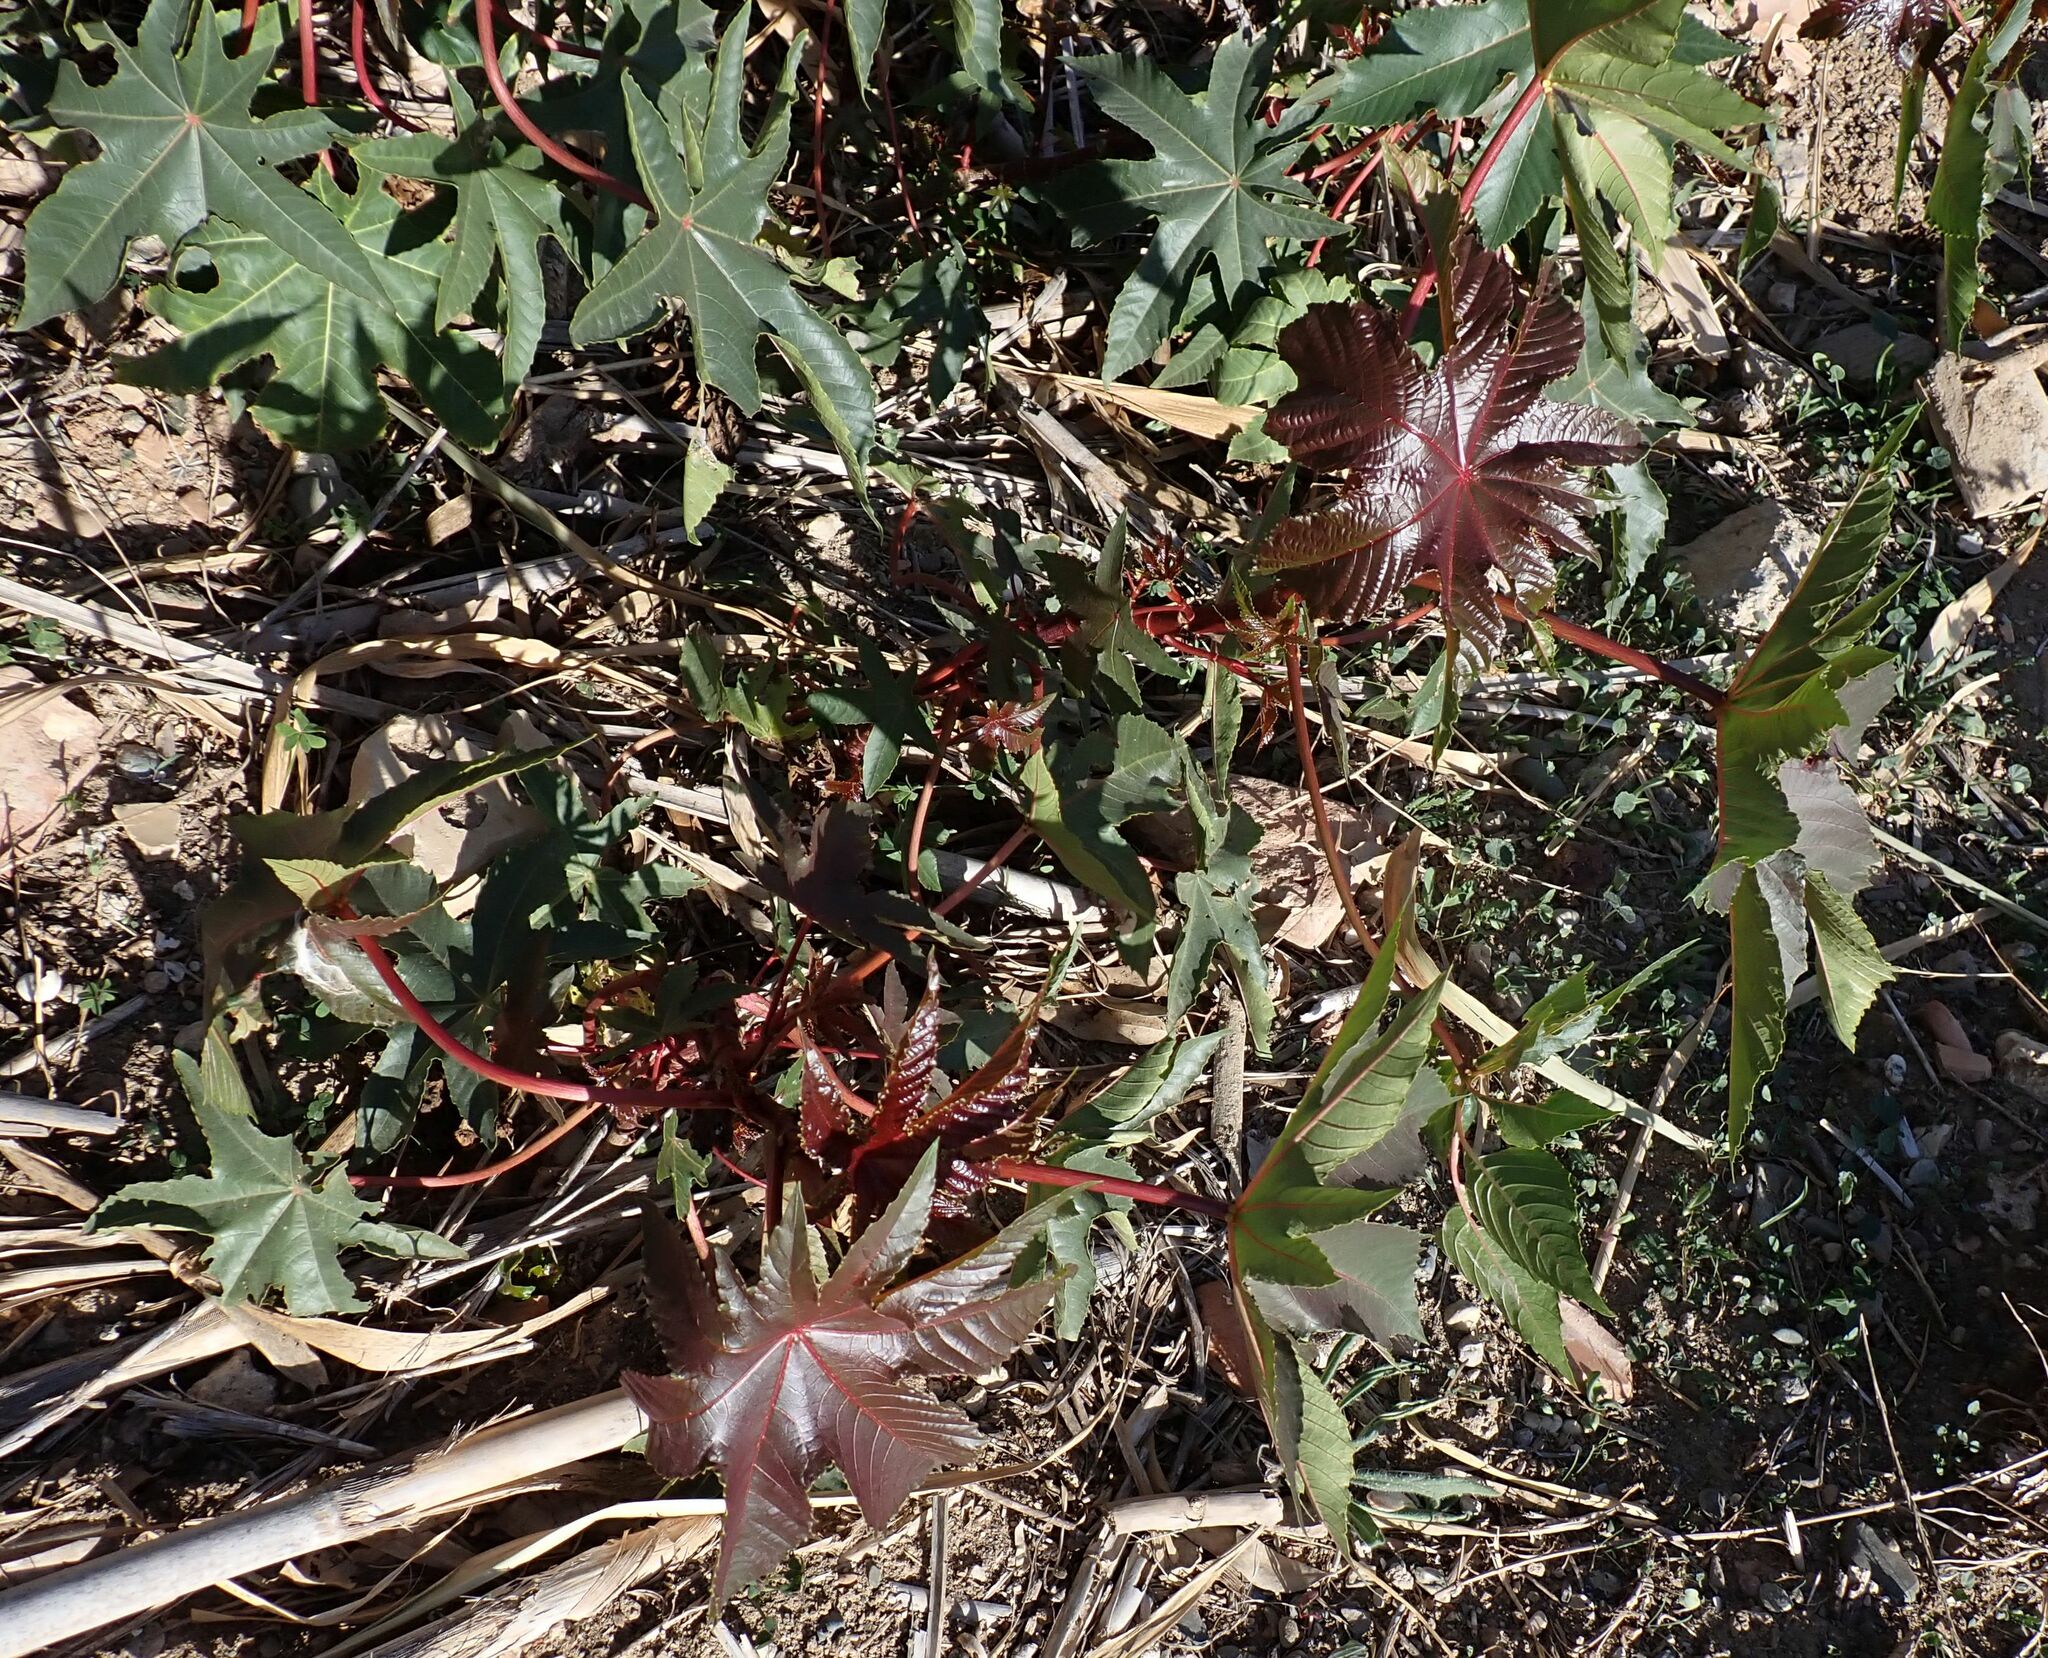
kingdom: Plantae
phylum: Tracheophyta
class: Magnoliopsida
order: Malpighiales
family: Euphorbiaceae
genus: Ricinus
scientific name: Ricinus communis
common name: Castor-oil-plant
